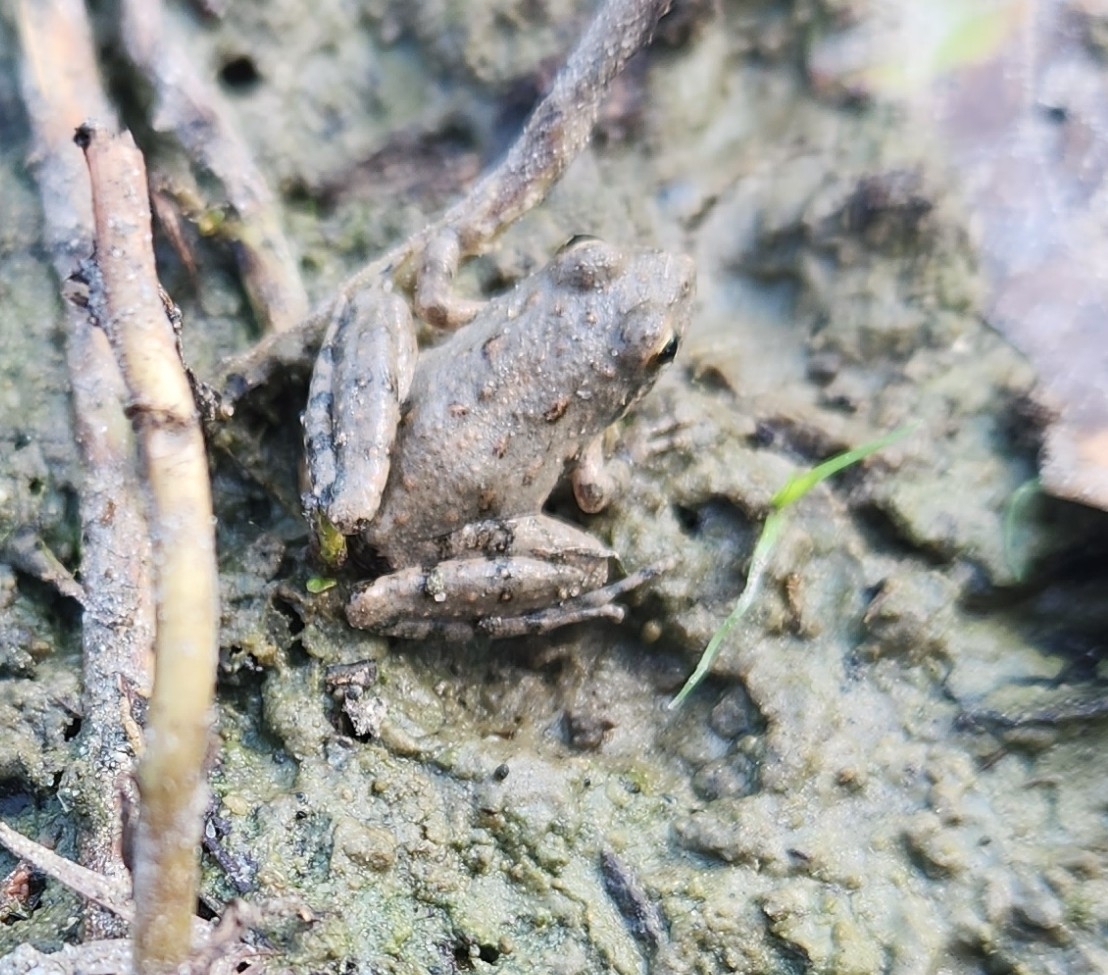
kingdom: Animalia
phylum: Chordata
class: Amphibia
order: Anura
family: Hylidae
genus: Acris
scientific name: Acris blanchardi
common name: Blanchard's cricket frog
